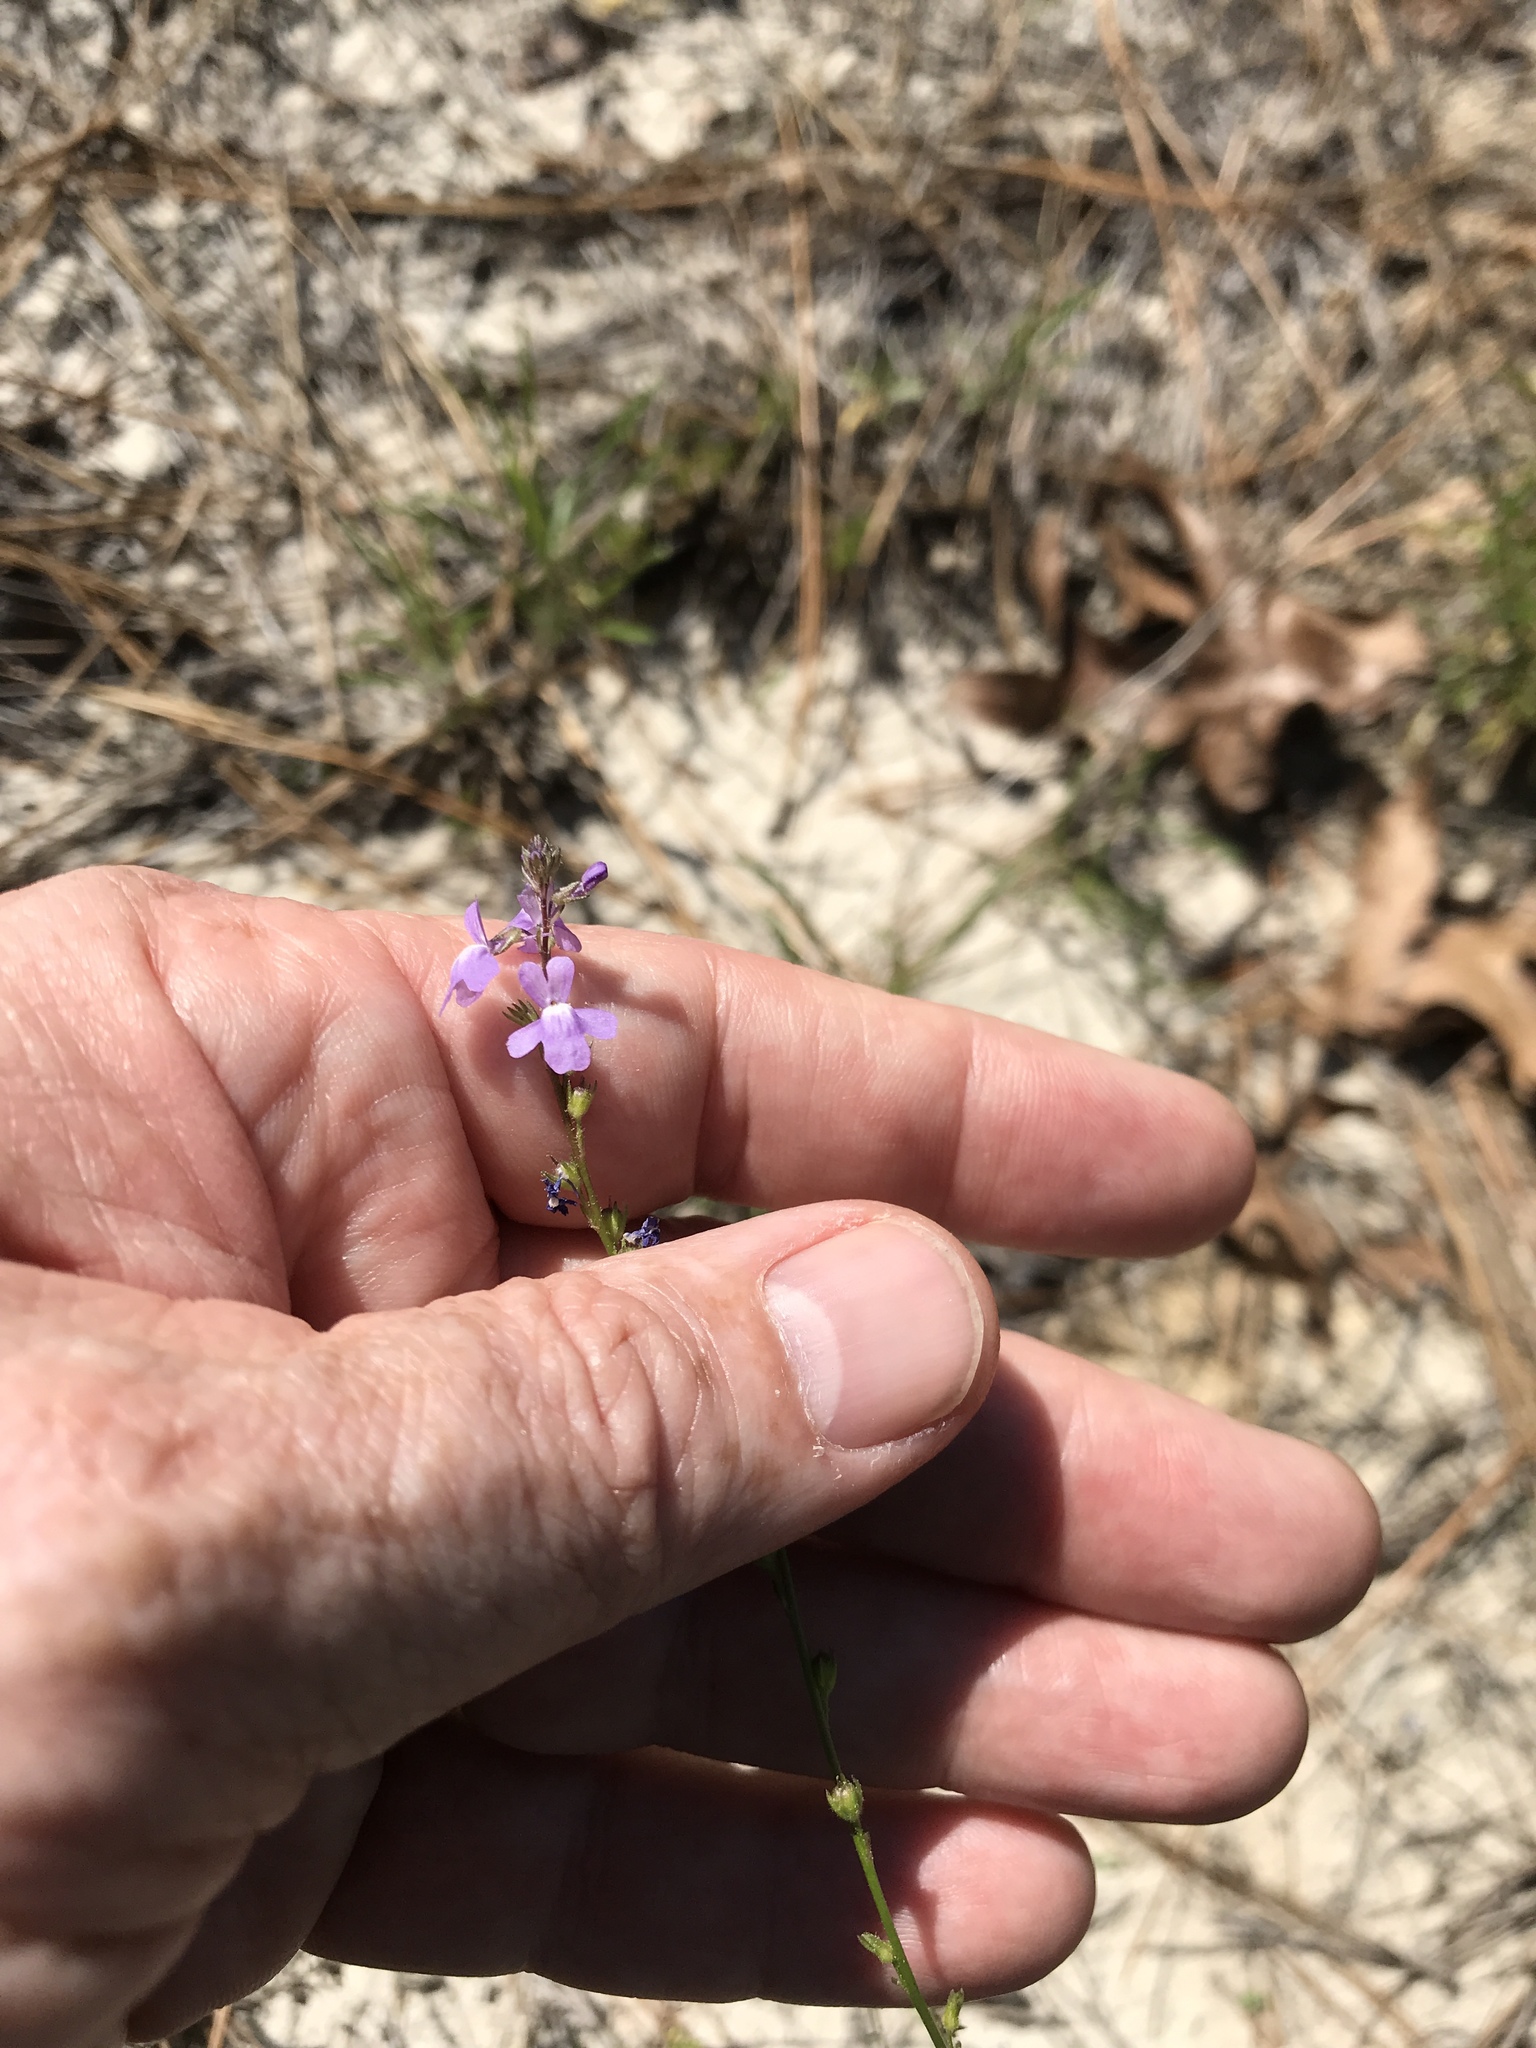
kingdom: Plantae
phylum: Tracheophyta
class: Magnoliopsida
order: Lamiales
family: Plantaginaceae
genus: Nuttallanthus
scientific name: Nuttallanthus canadensis
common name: Blue toadflax
